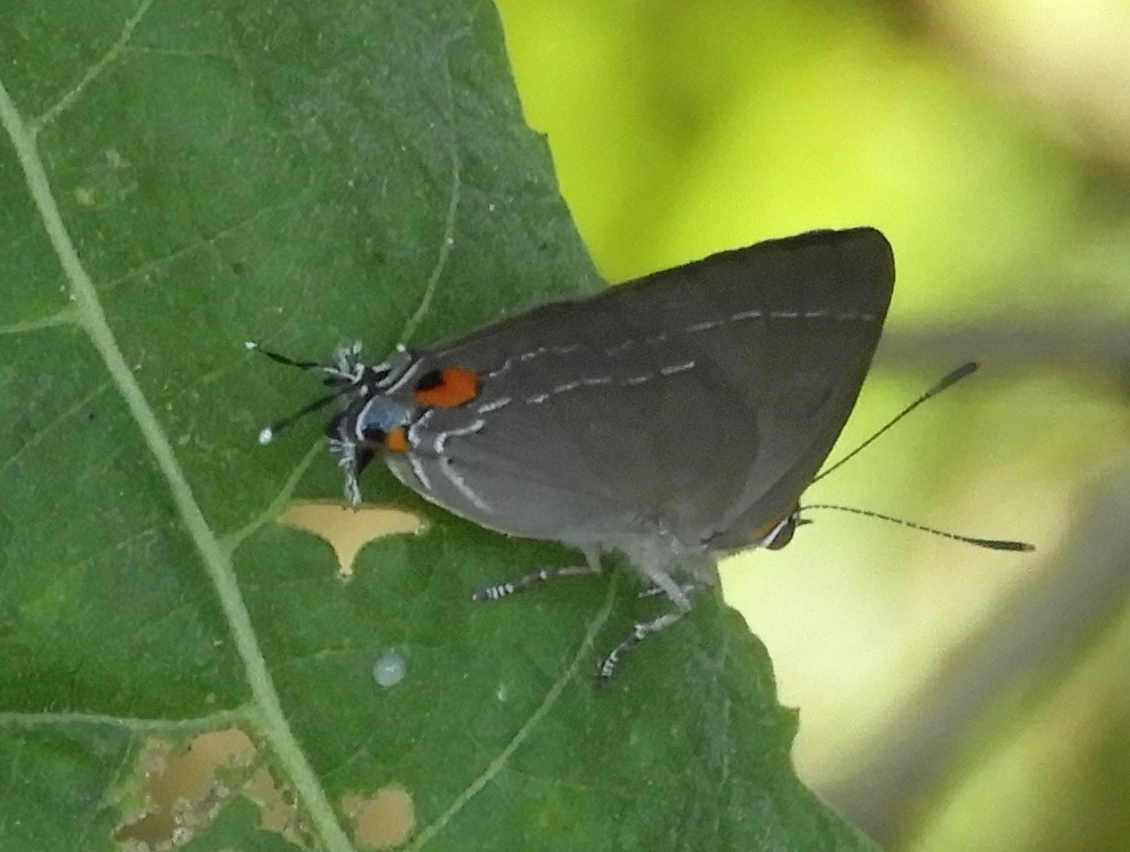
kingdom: Animalia
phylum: Arthropoda
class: Insecta
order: Lepidoptera
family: Lycaenidae
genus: Thecla
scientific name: Thecla marius
